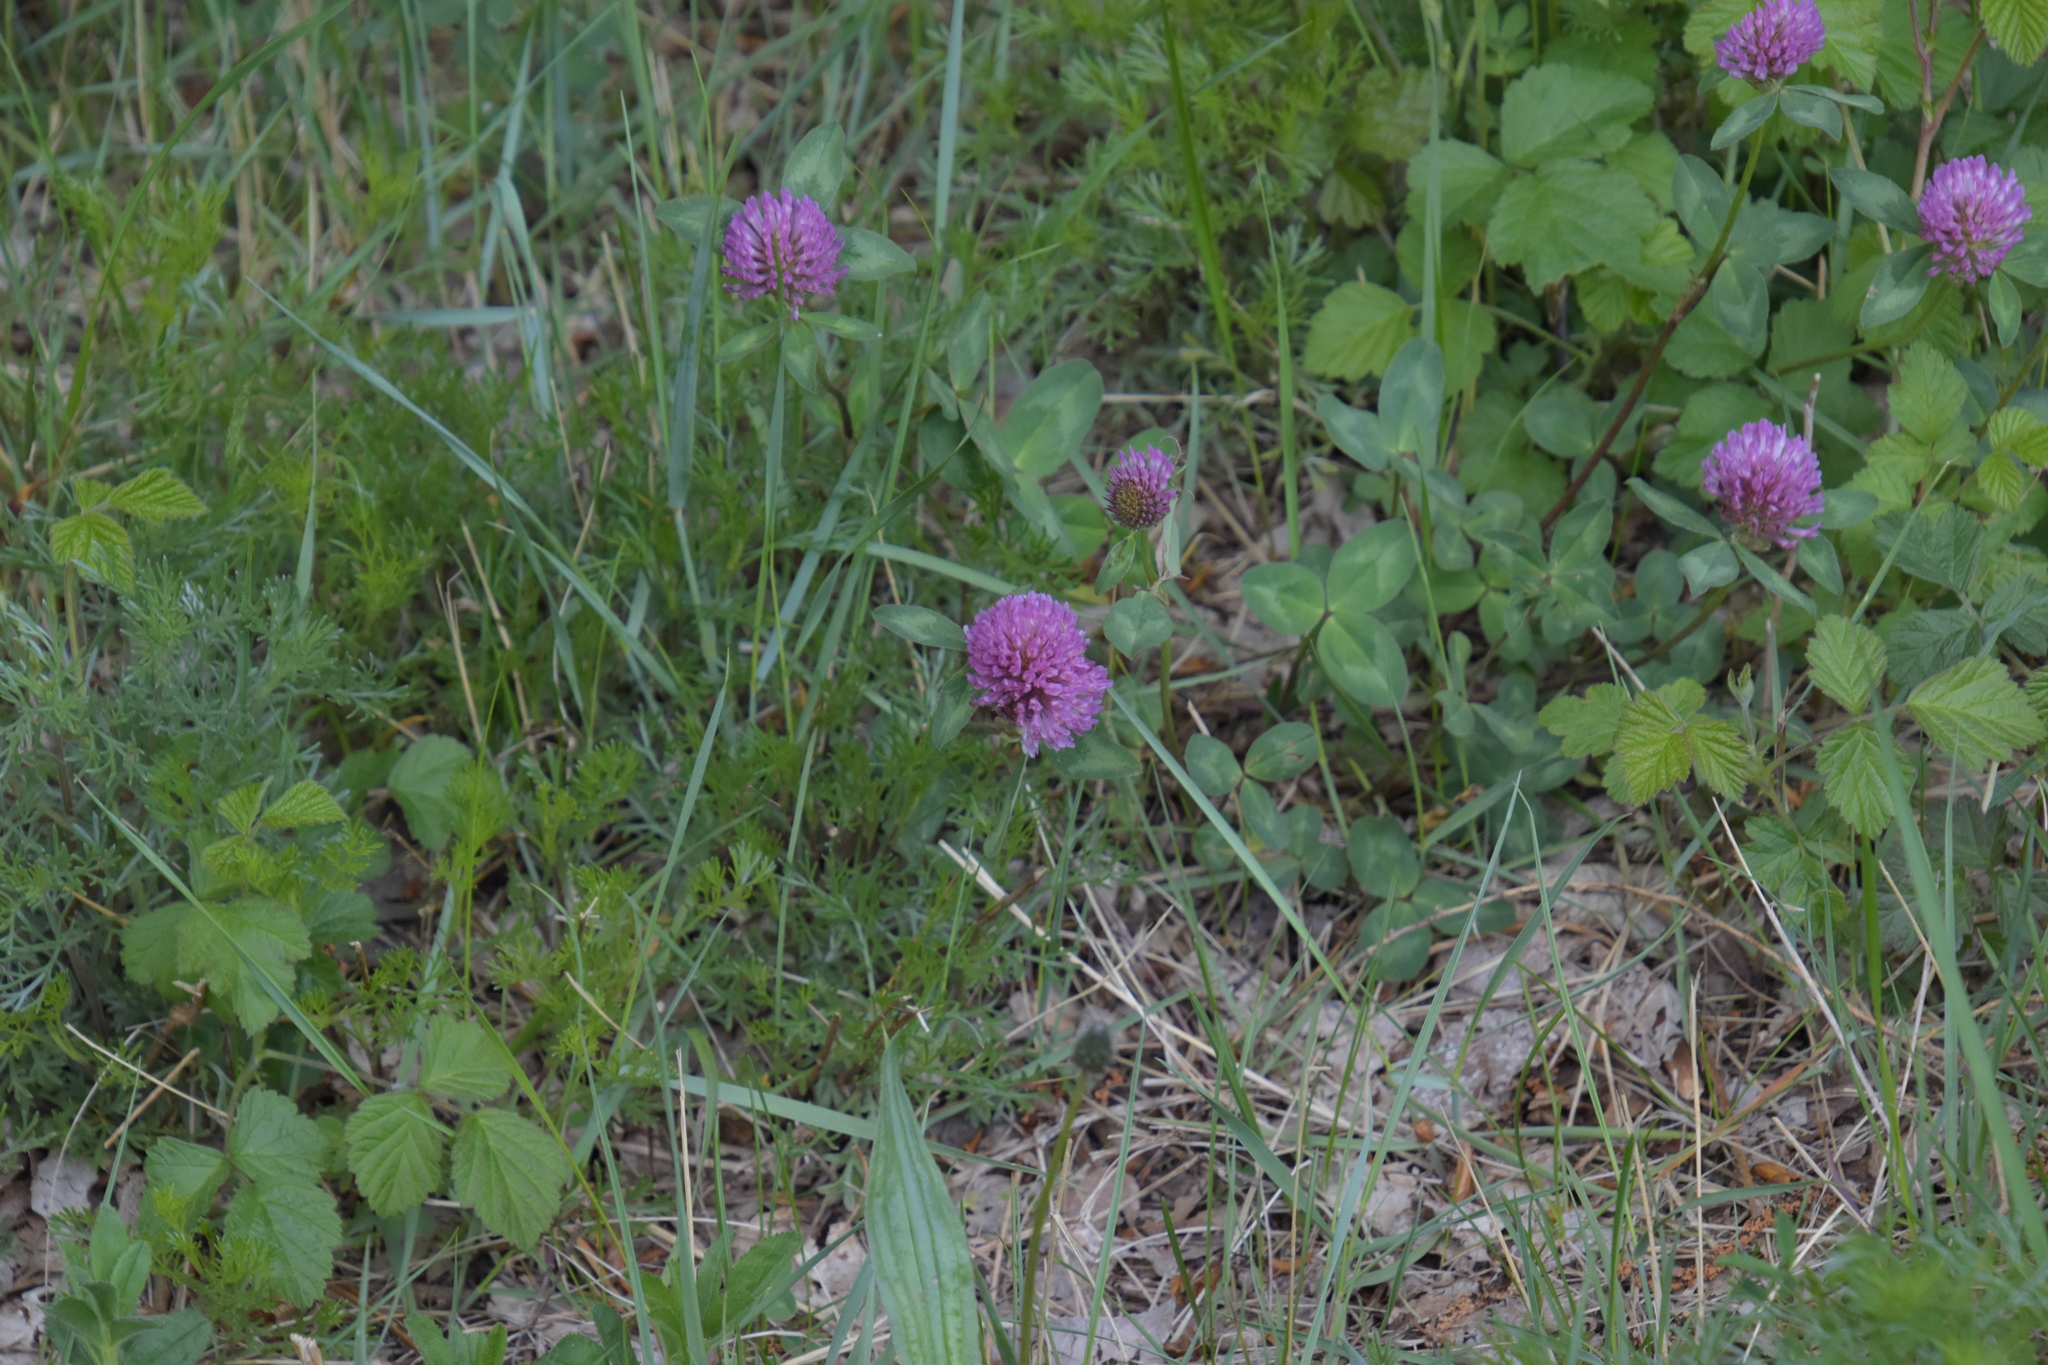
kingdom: Plantae
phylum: Tracheophyta
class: Magnoliopsida
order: Fabales
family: Fabaceae
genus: Trifolium
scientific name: Trifolium pratense
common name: Red clover
